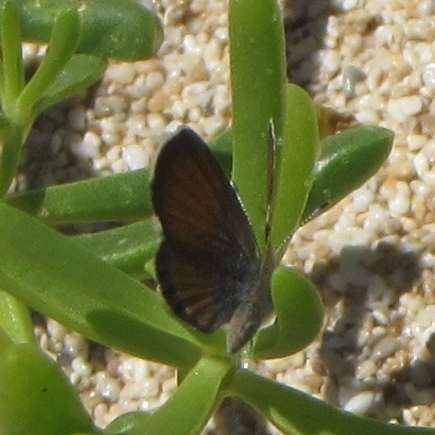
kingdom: Animalia
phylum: Arthropoda
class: Insecta
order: Lepidoptera
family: Lycaenidae
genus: Brephidium
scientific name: Brephidium exilis
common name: Pygmy blue
